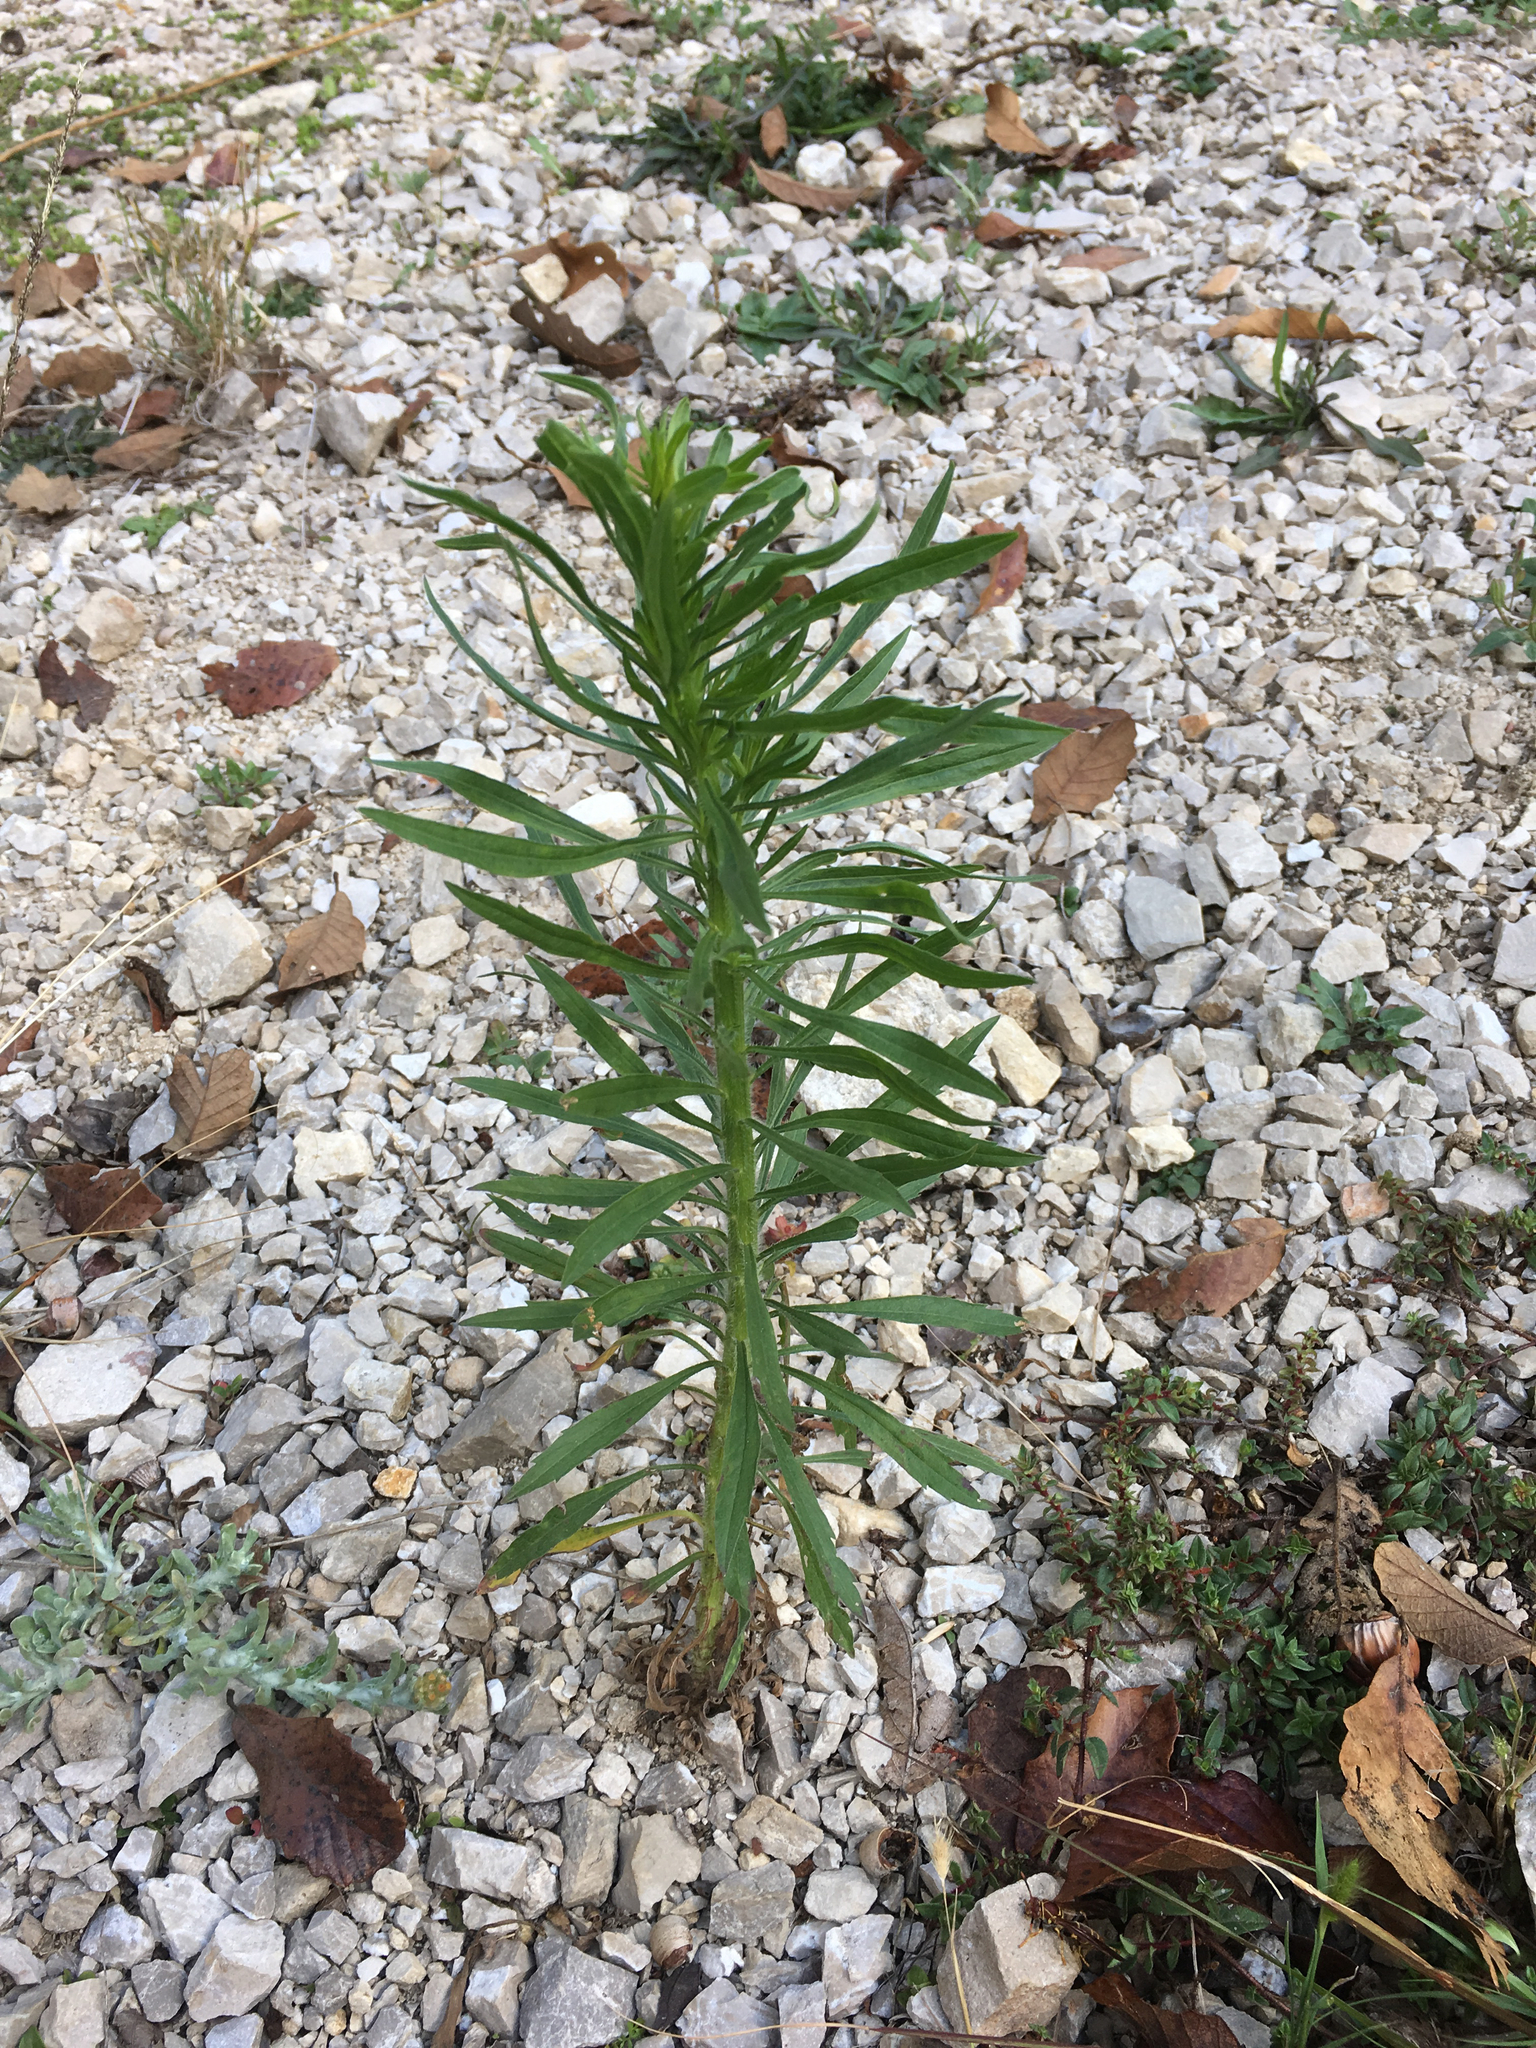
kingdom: Plantae
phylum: Tracheophyta
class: Magnoliopsida
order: Asterales
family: Asteraceae
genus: Erigeron
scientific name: Erigeron canadensis
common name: Canadian fleabane
